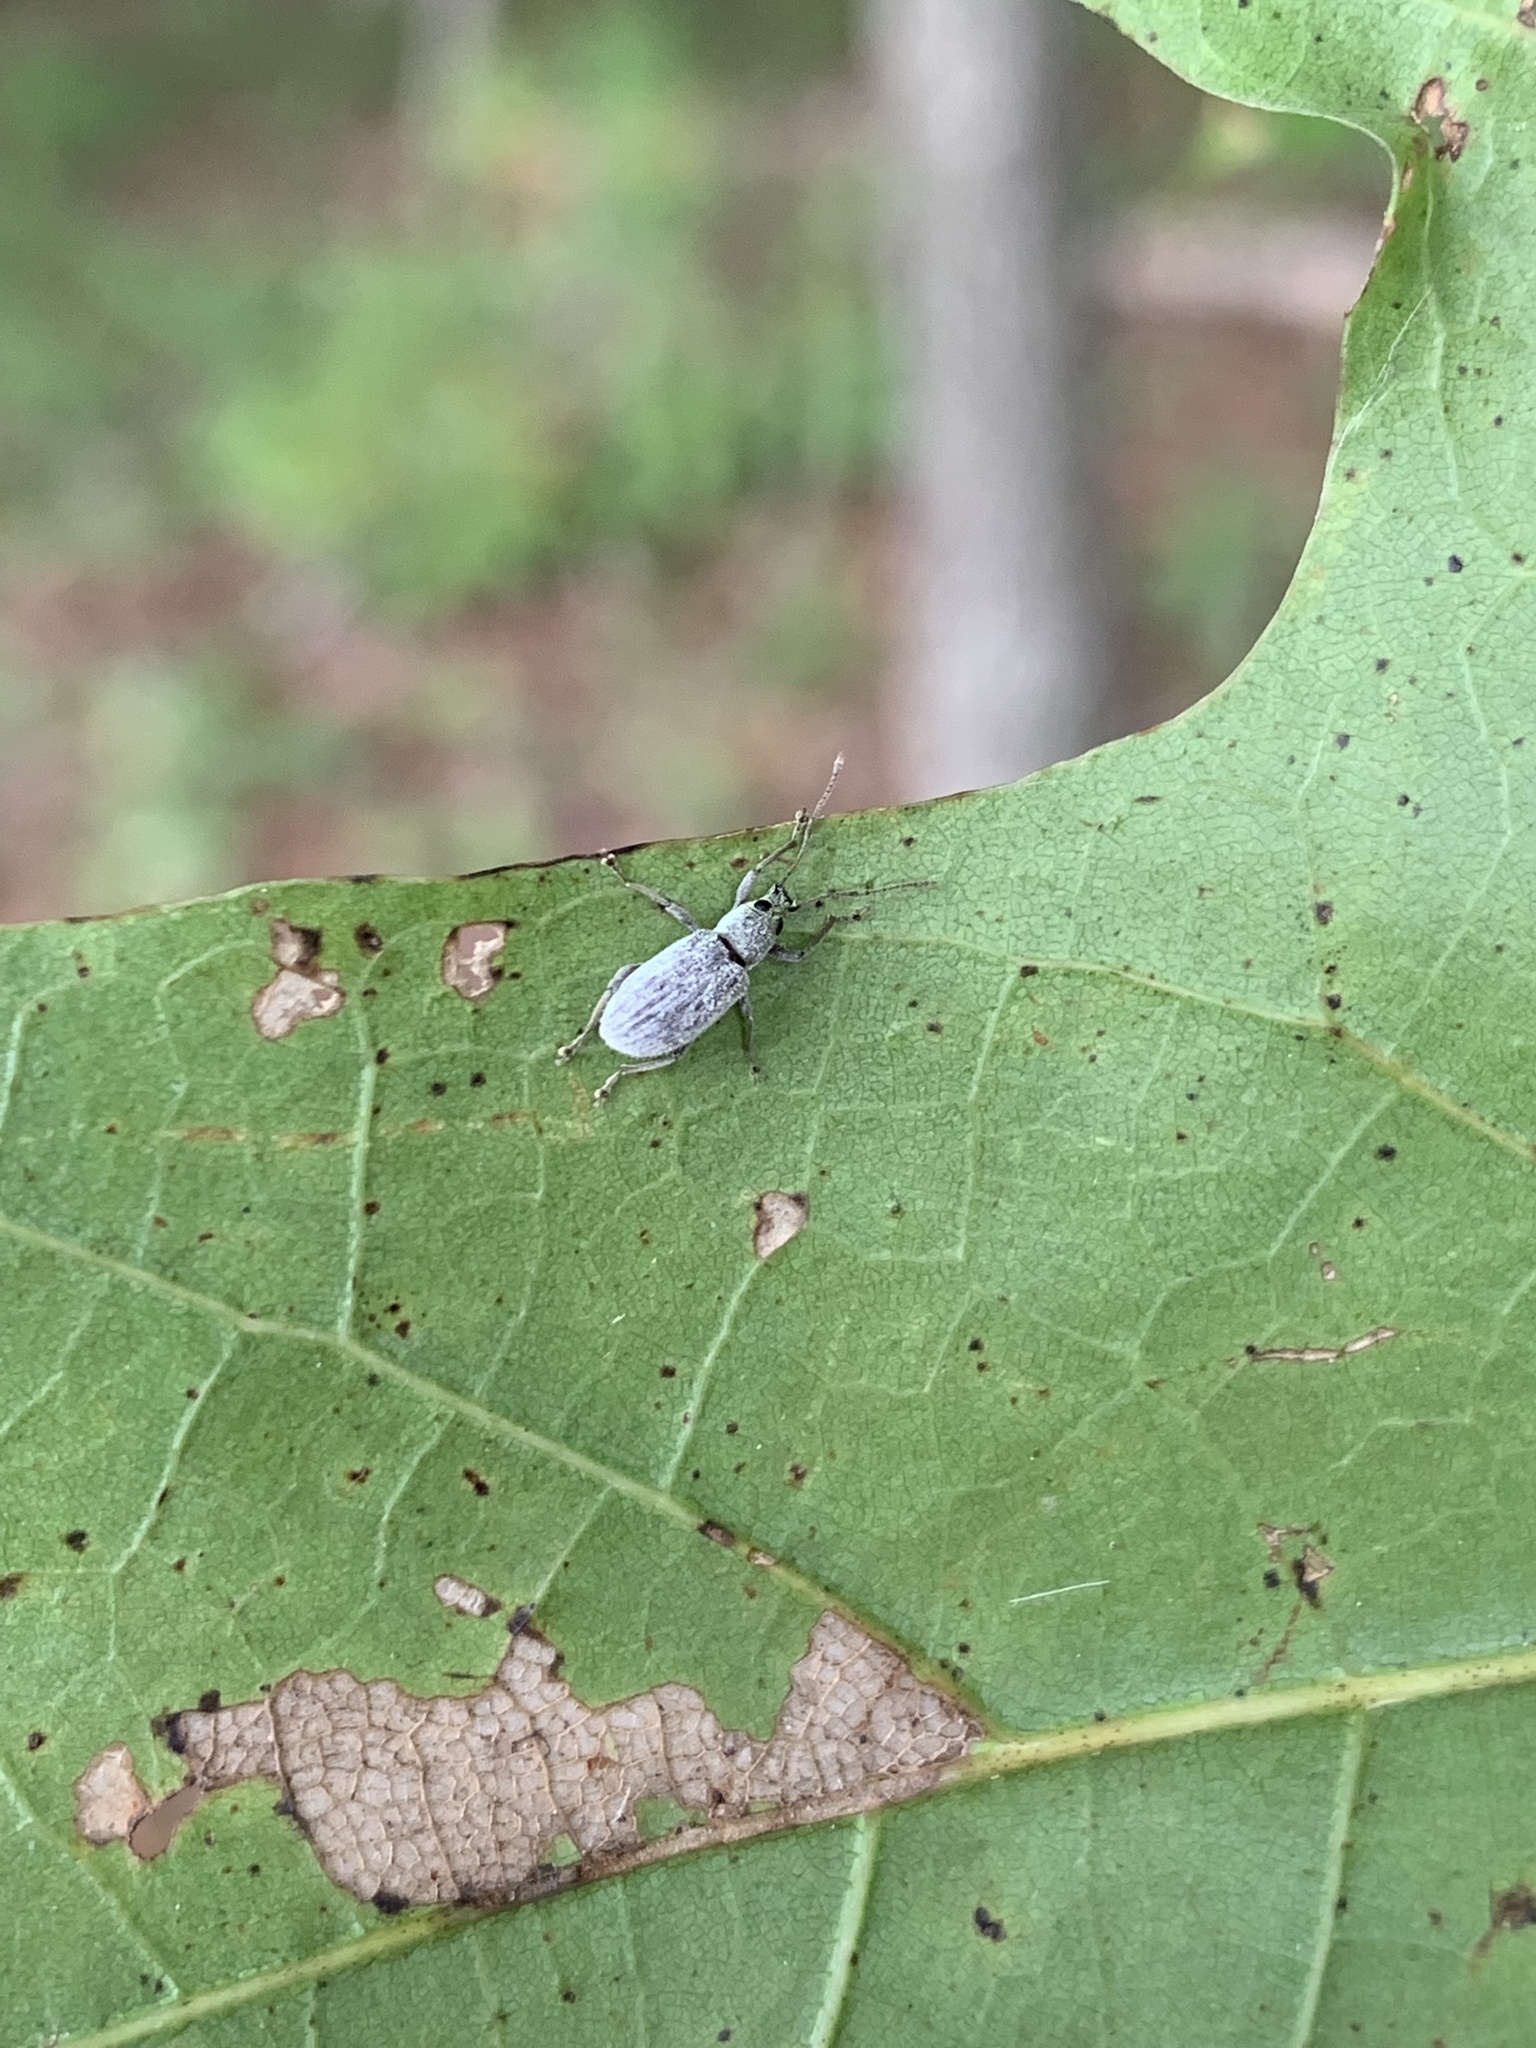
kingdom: Animalia
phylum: Arthropoda
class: Insecta
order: Coleoptera
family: Curculionidae
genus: Cyrtepistomus
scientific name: Cyrtepistomus castaneus
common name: Weevil
